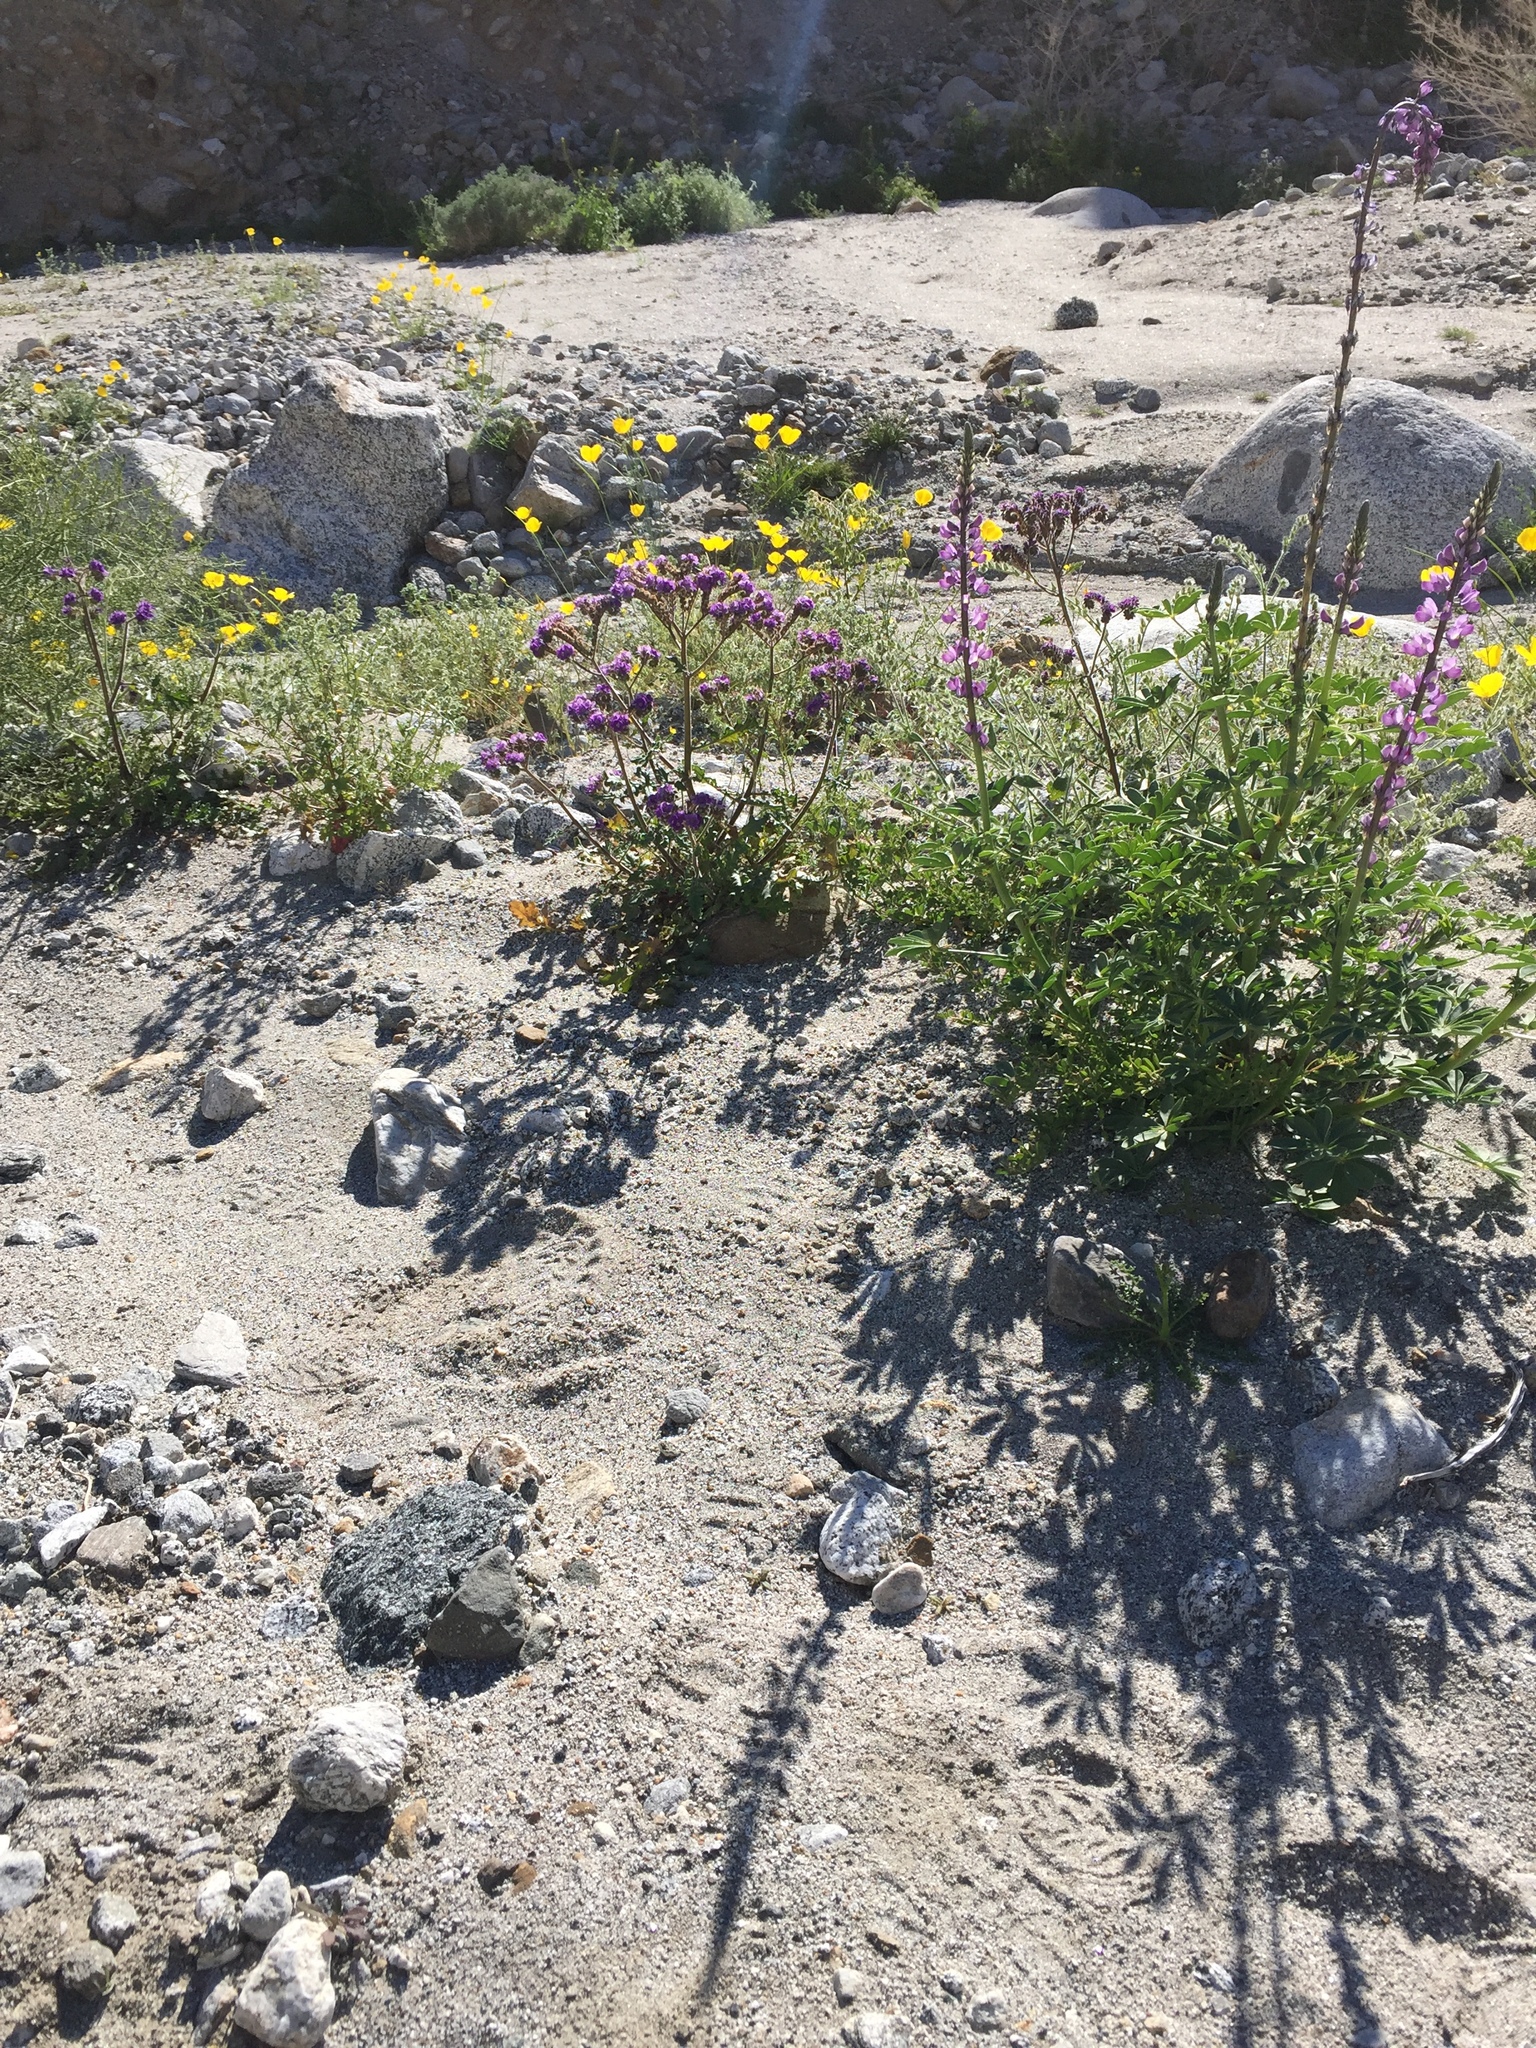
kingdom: Plantae
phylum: Tracheophyta
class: Magnoliopsida
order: Boraginales
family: Hydrophyllaceae
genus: Phacelia
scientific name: Phacelia crenulata
